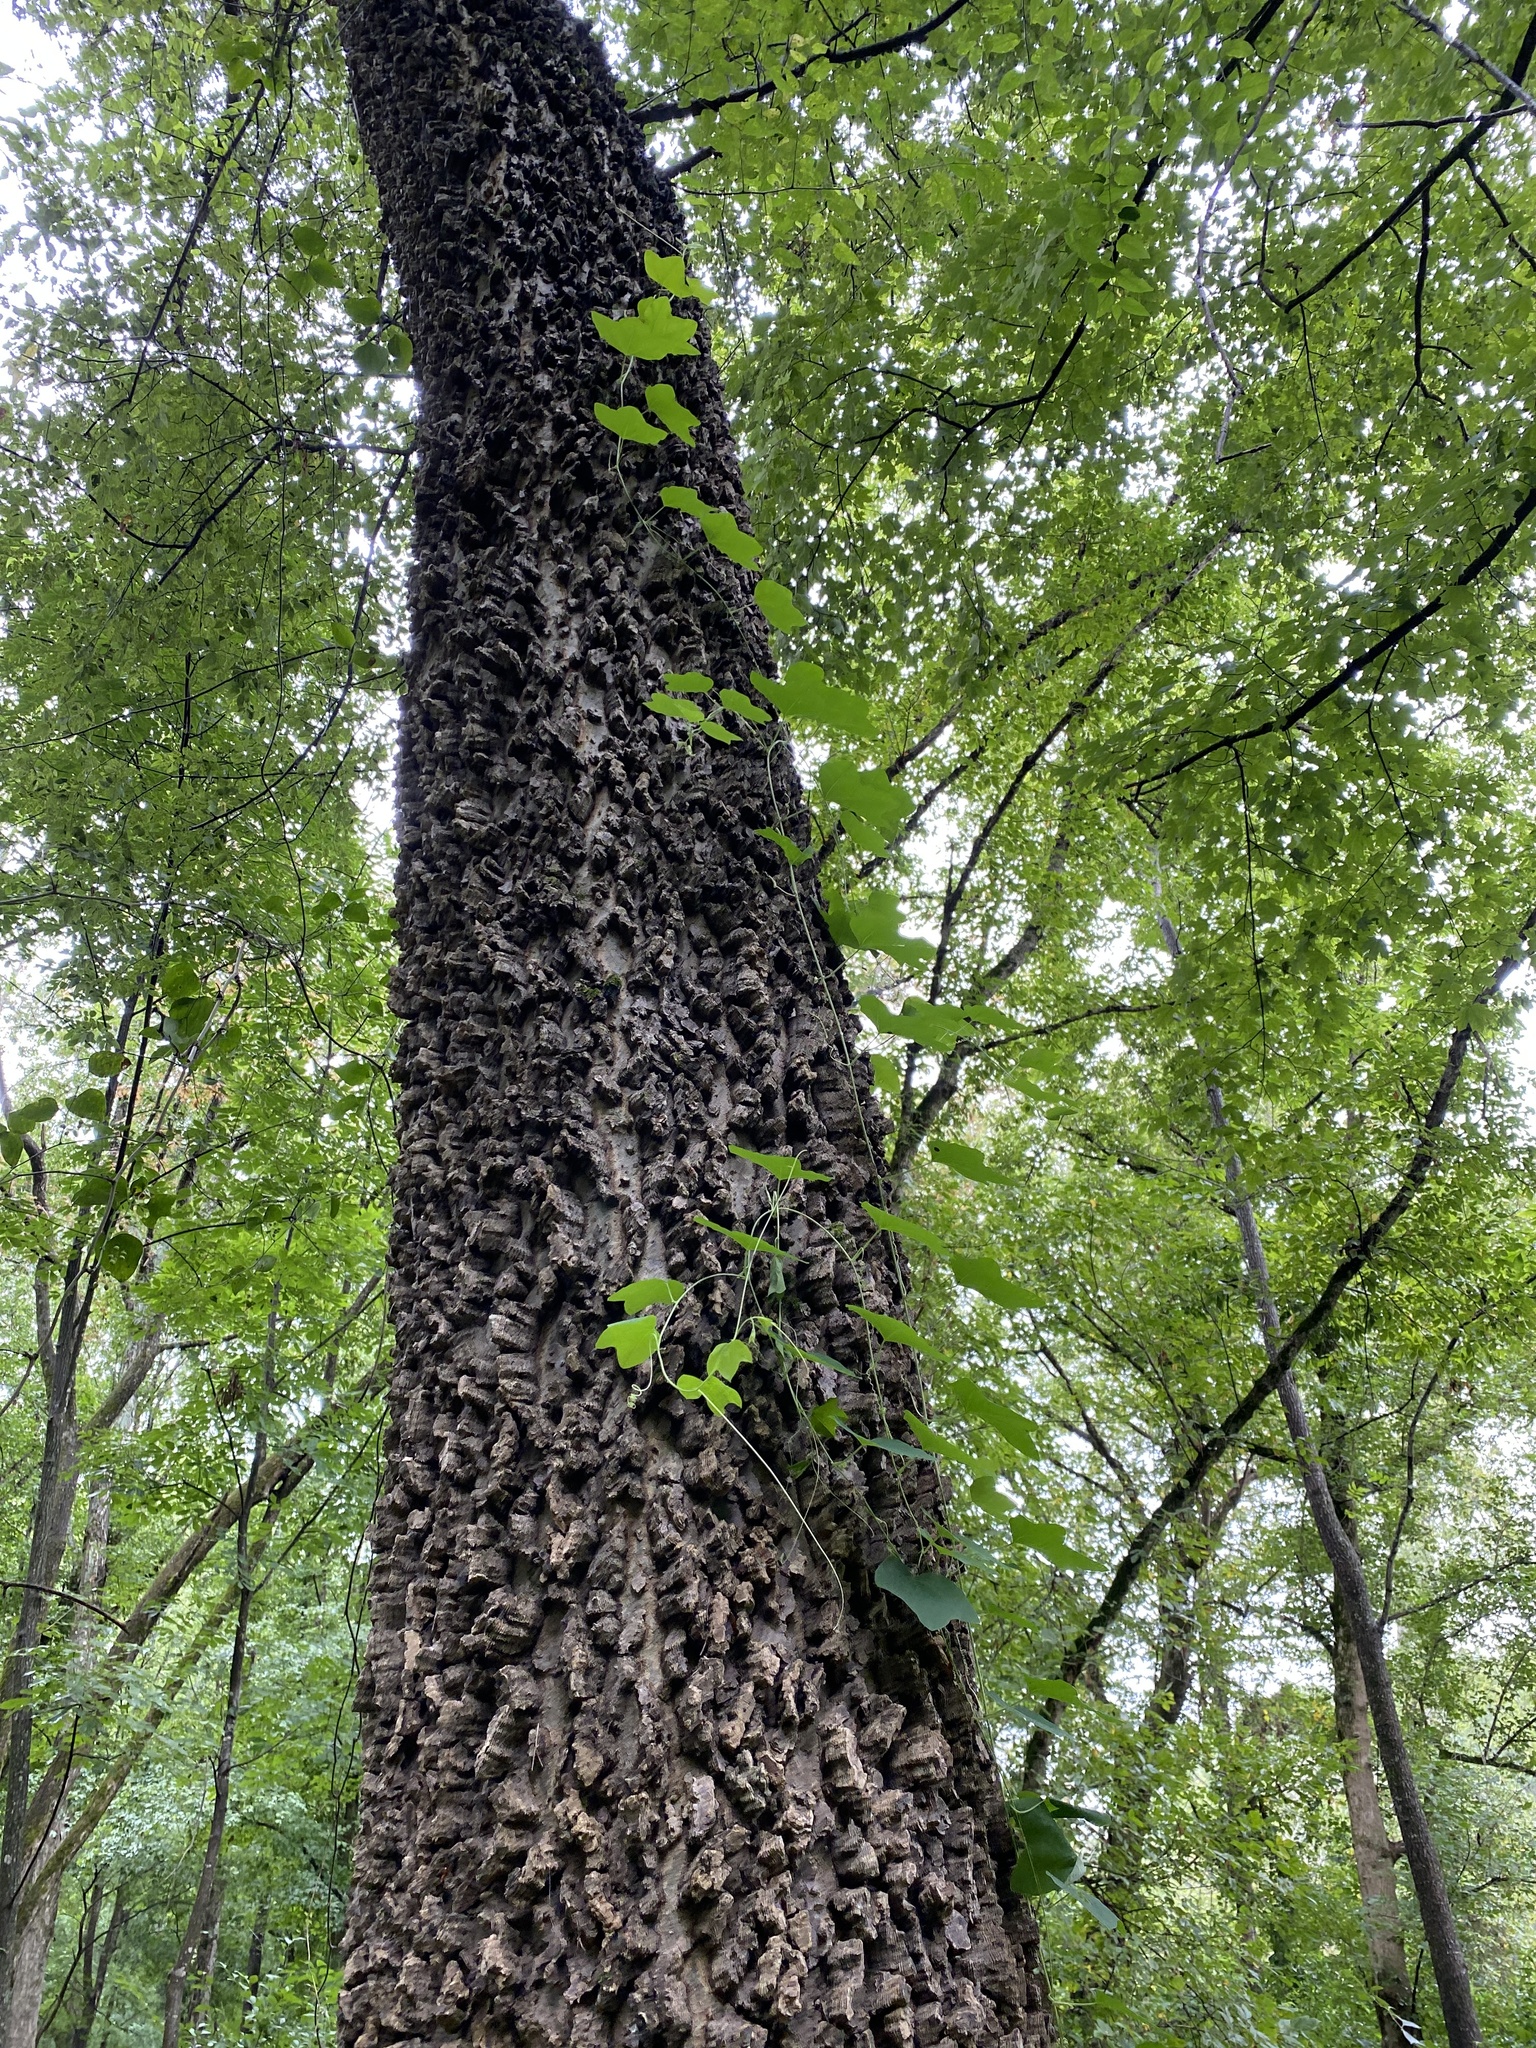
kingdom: Plantae
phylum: Tracheophyta
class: Magnoliopsida
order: Malpighiales
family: Passifloraceae
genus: Passiflora
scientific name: Passiflora lutea
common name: Yellow passionflower
